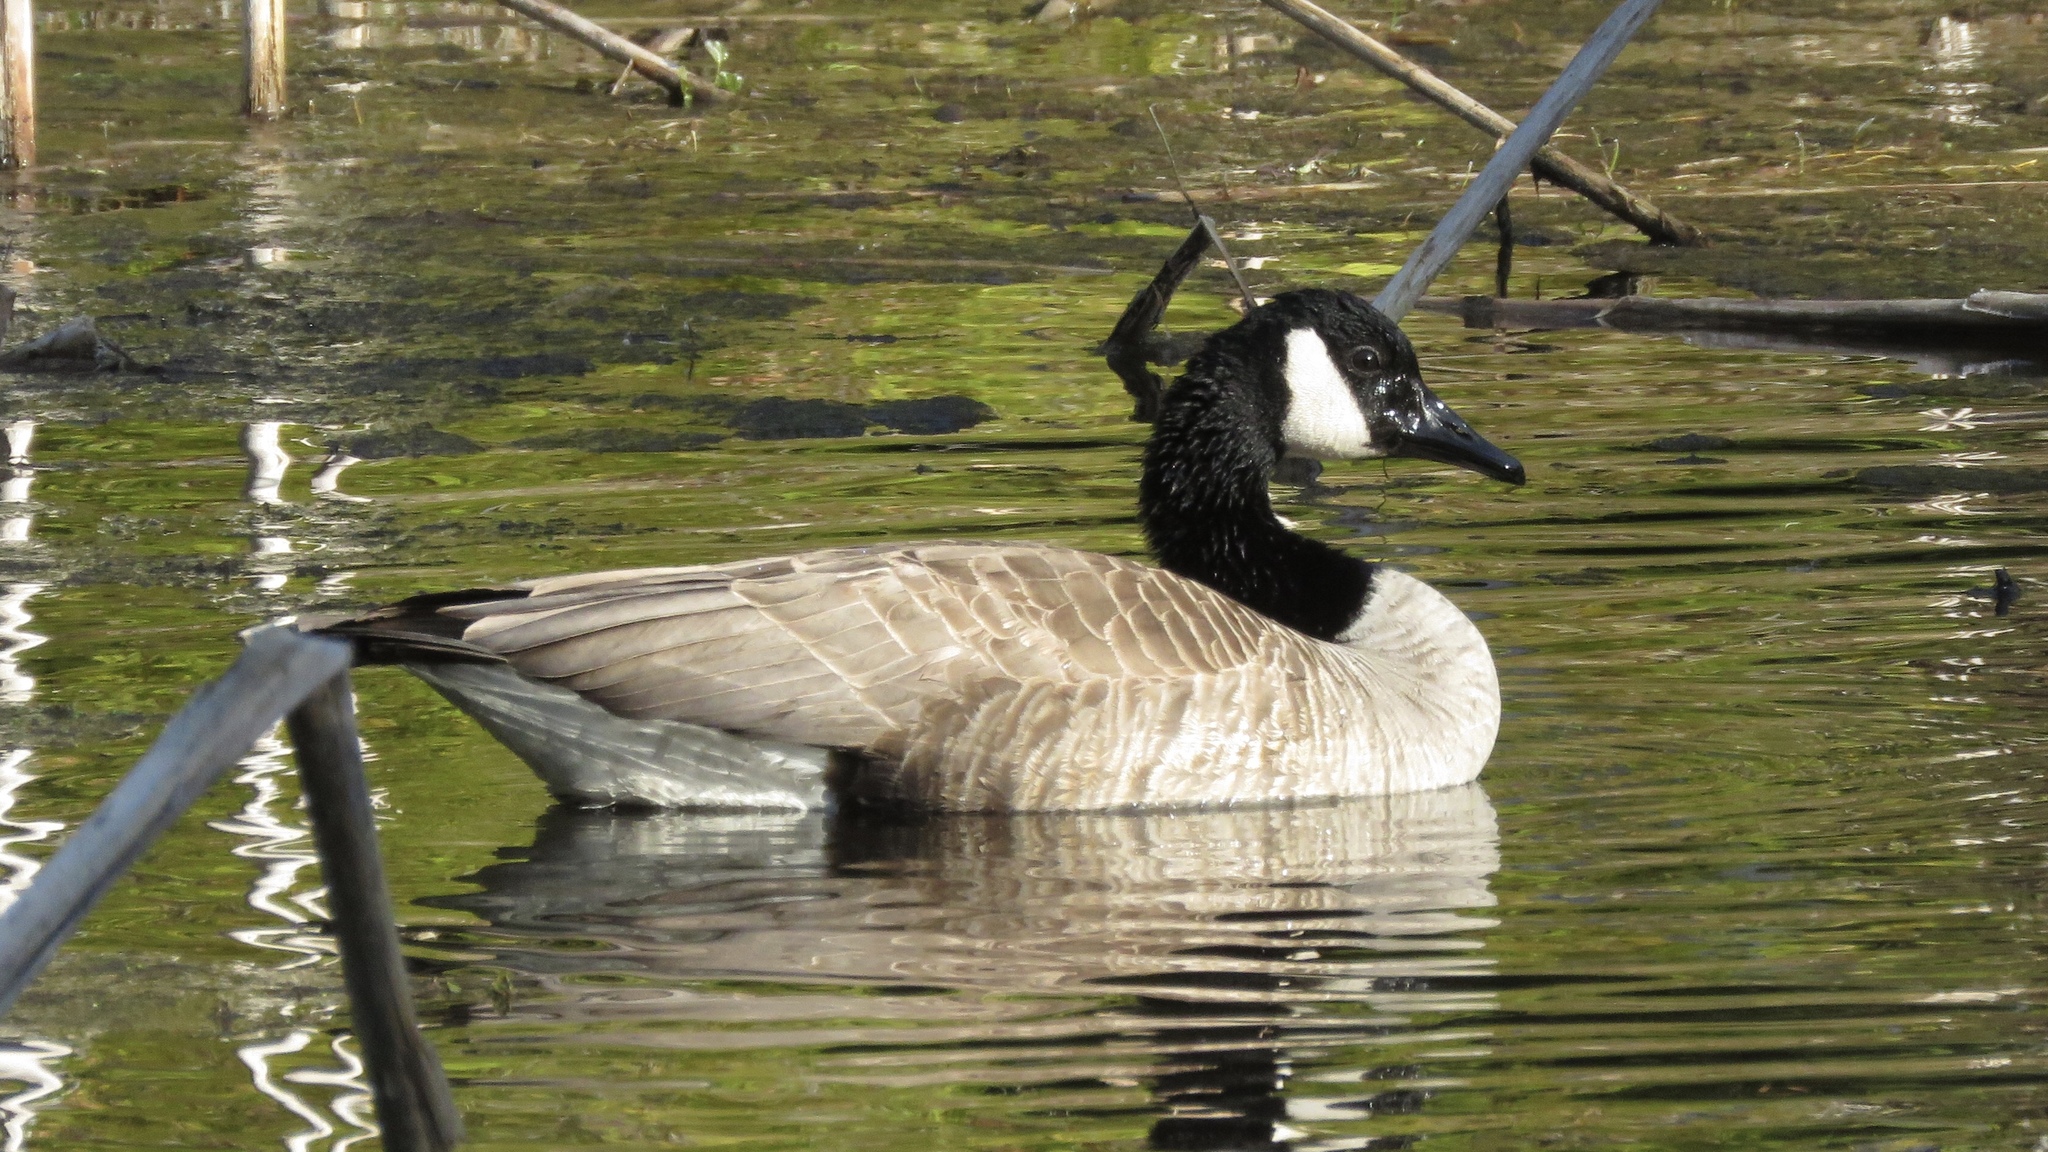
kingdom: Animalia
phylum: Chordata
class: Aves
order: Anseriformes
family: Anatidae
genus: Branta
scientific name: Branta canadensis
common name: Canada goose
